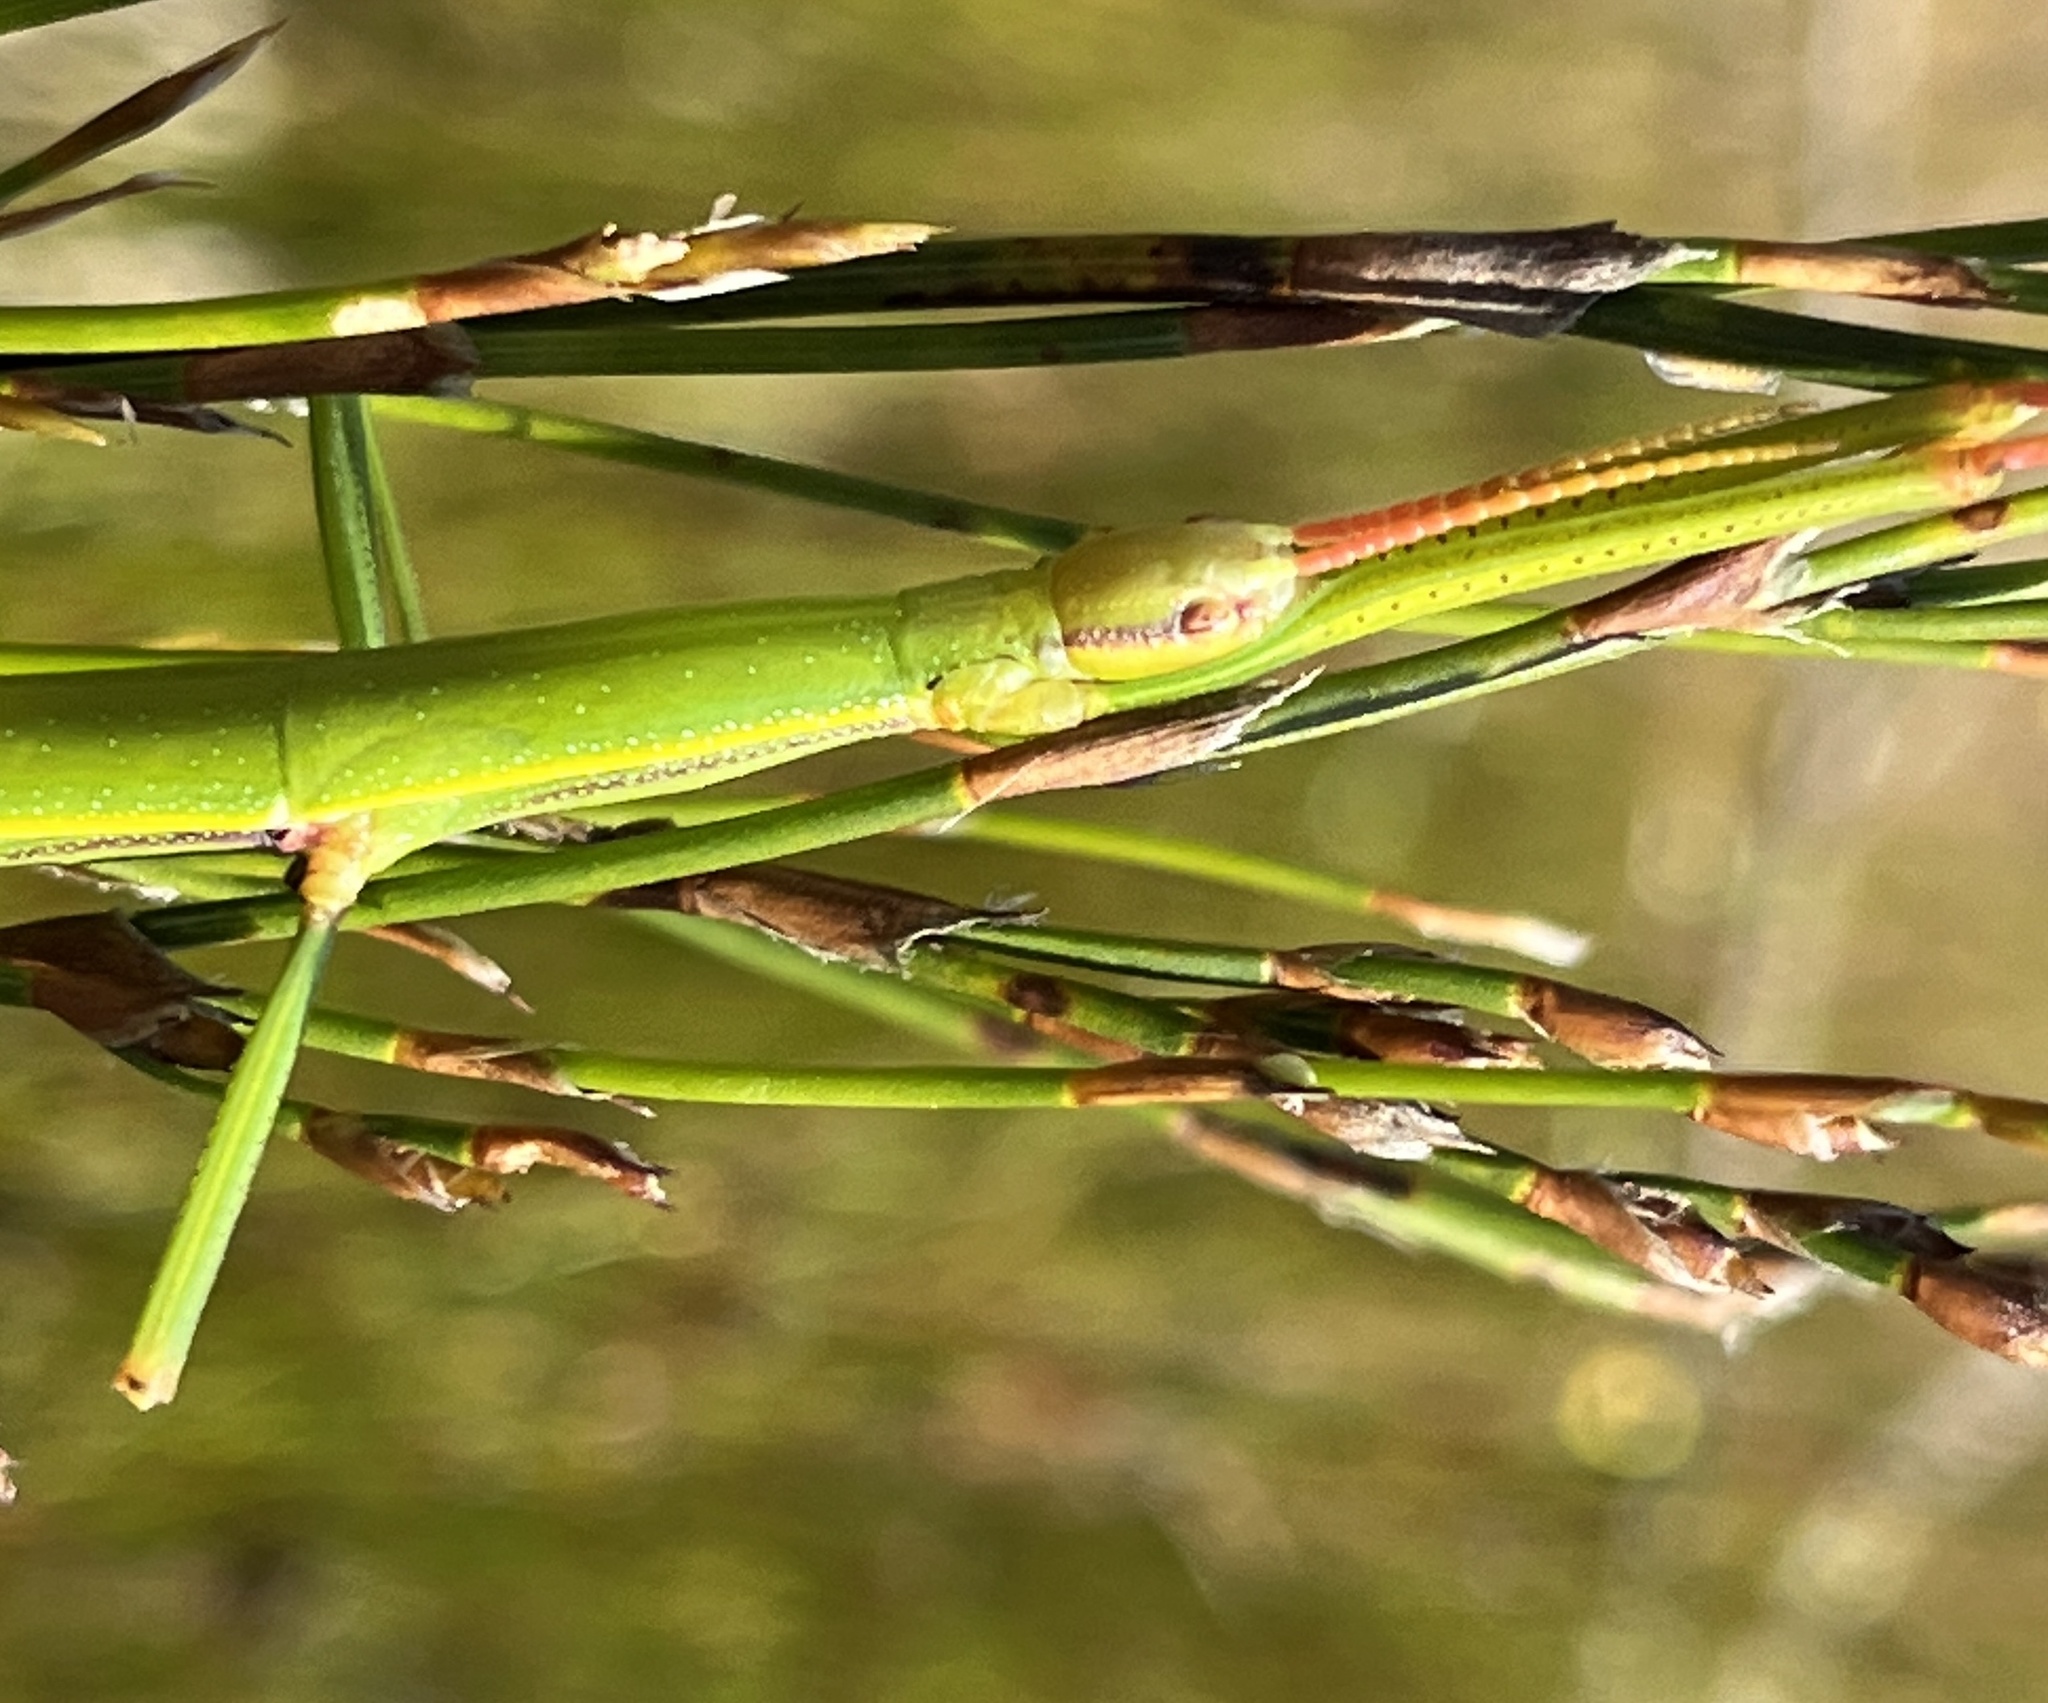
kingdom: Animalia
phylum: Arthropoda
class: Insecta
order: Phasmida
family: Bacillidae
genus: Macynia
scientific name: Macynia labiata
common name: Thunberg's stick insect
